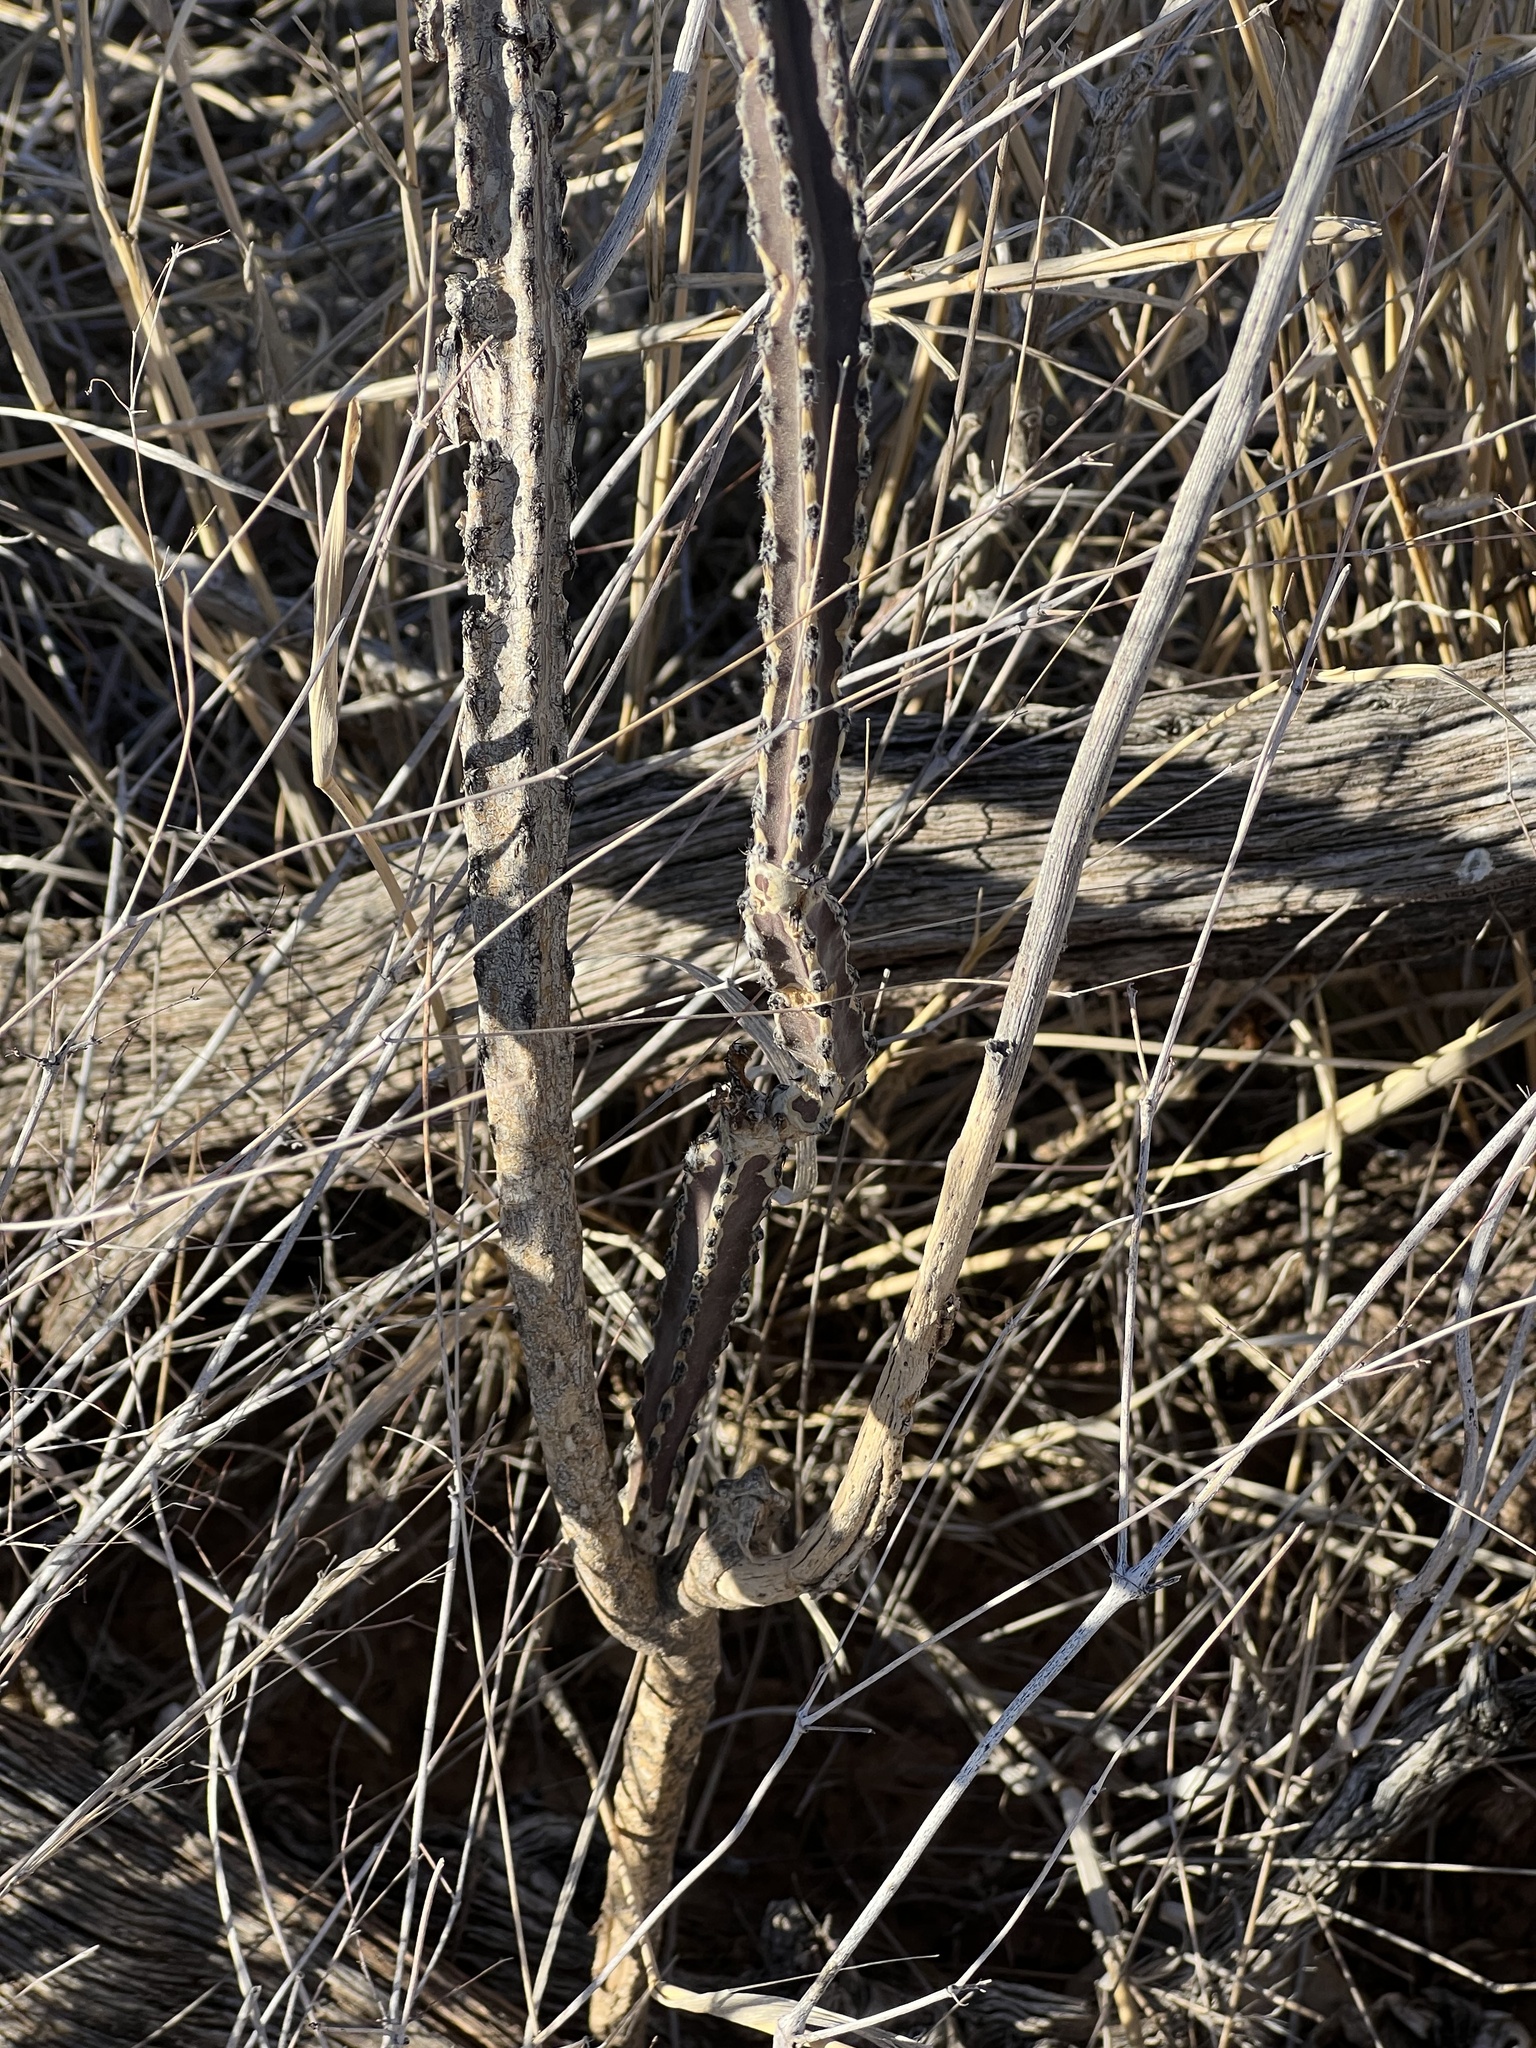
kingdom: Plantae
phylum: Tracheophyta
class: Magnoliopsida
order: Caryophyllales
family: Cactaceae
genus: Peniocereus
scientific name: Peniocereus greggii
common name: Desert night-blooming cereus
